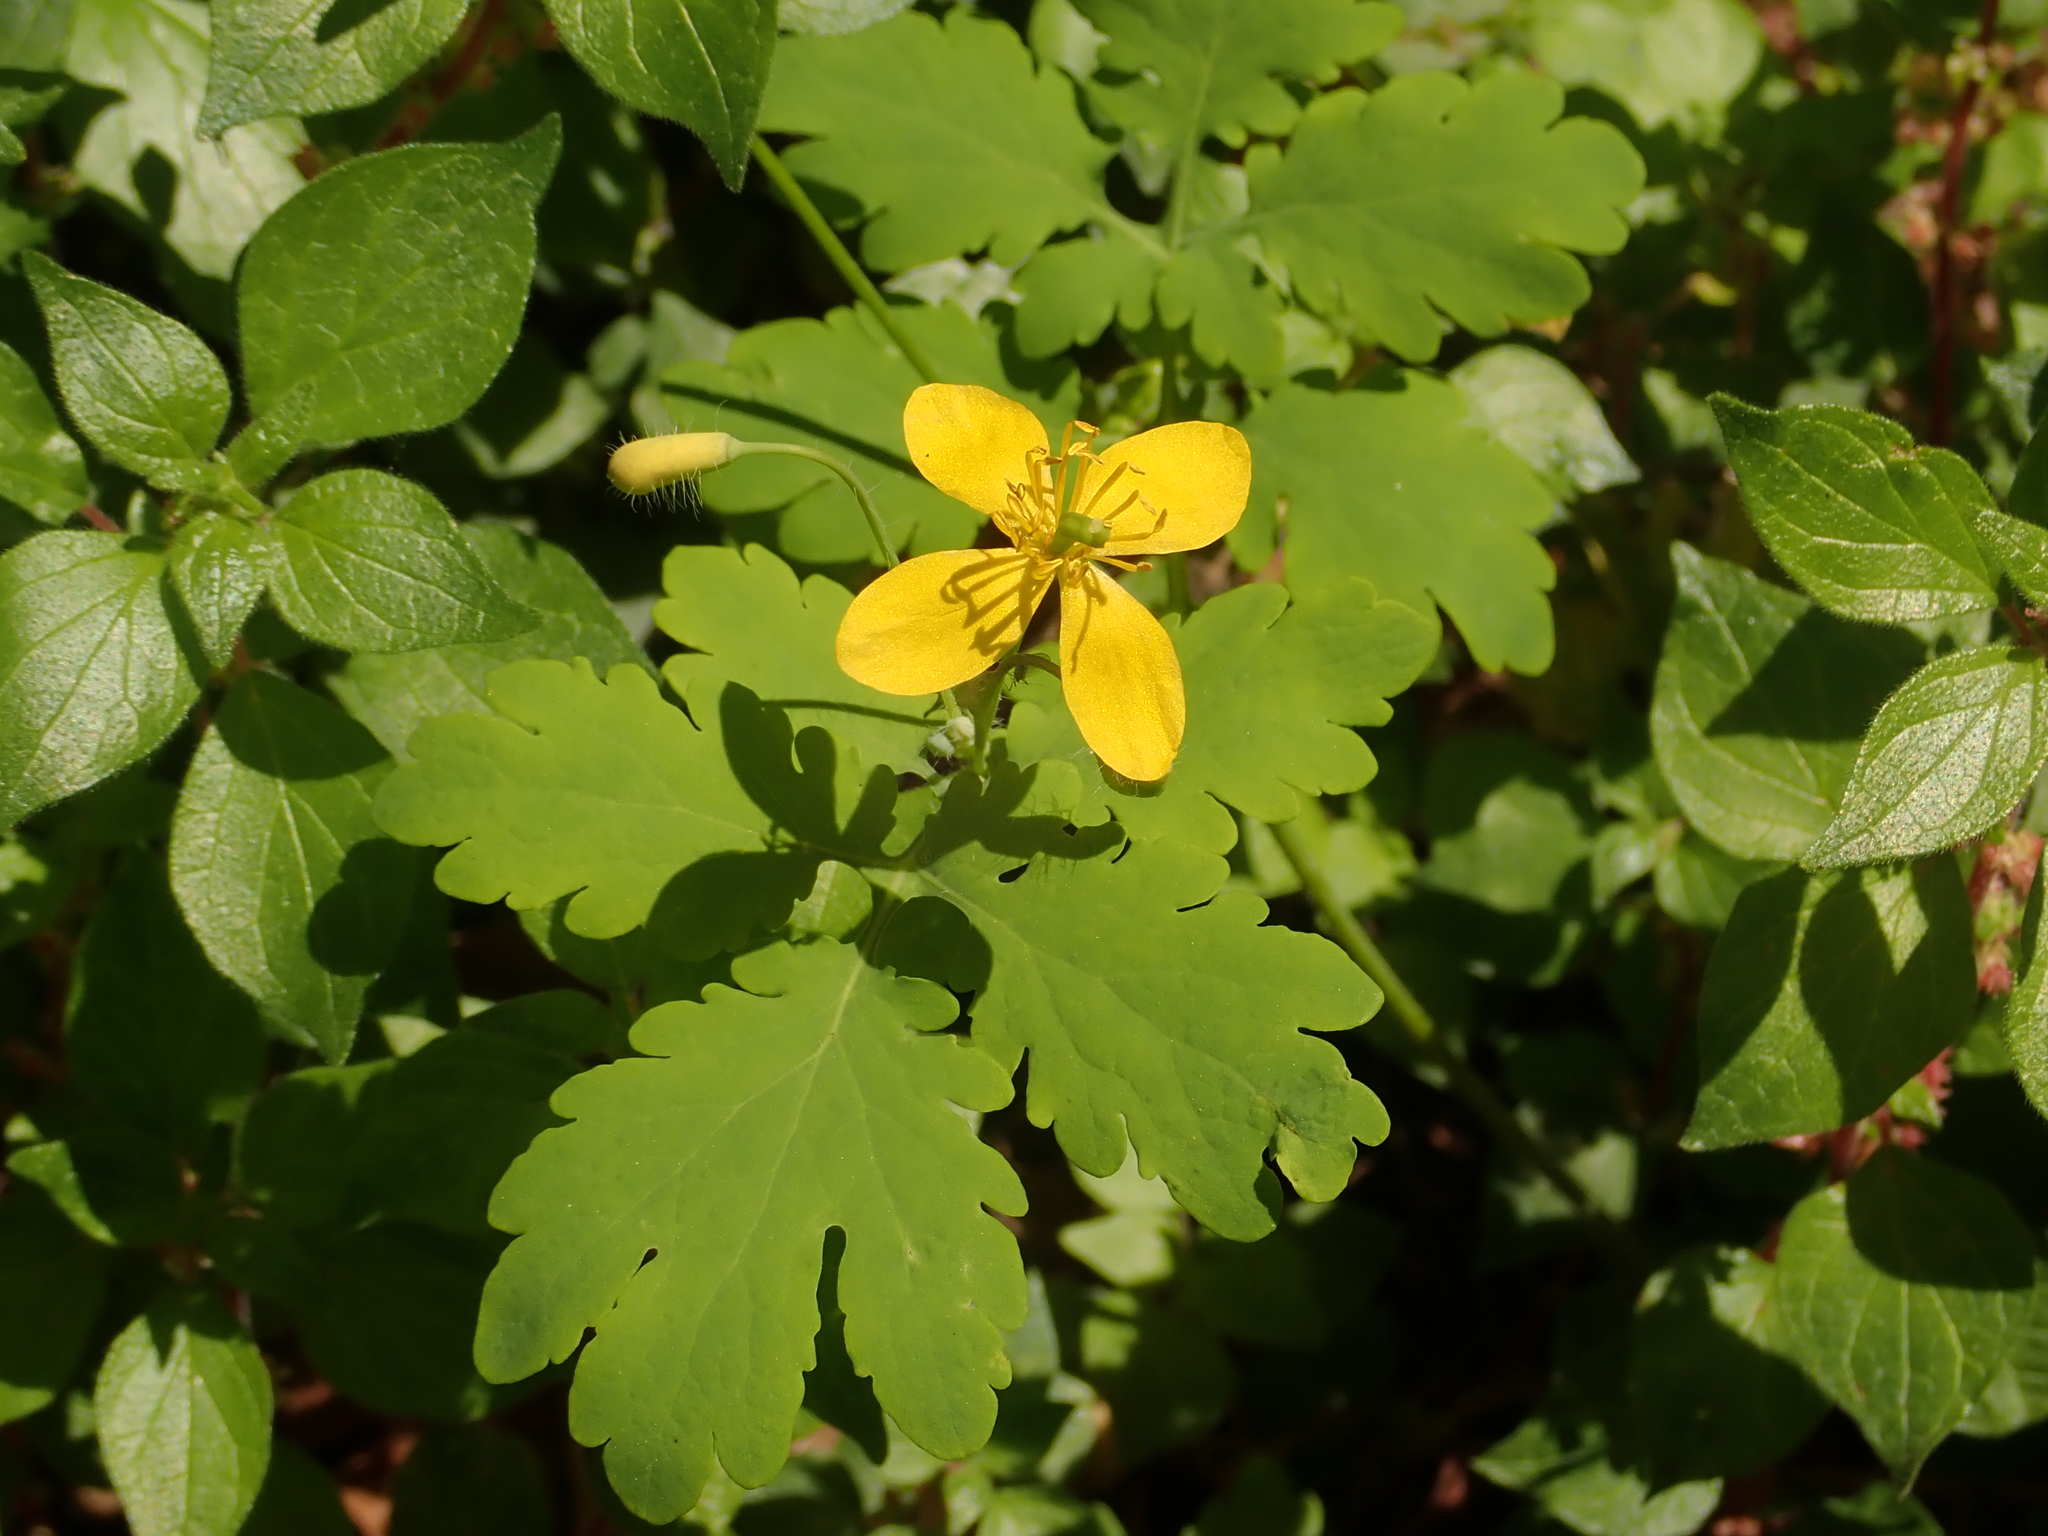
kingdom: Plantae
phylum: Tracheophyta
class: Magnoliopsida
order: Ranunculales
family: Papaveraceae
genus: Chelidonium
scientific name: Chelidonium majus
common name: Greater celandine
